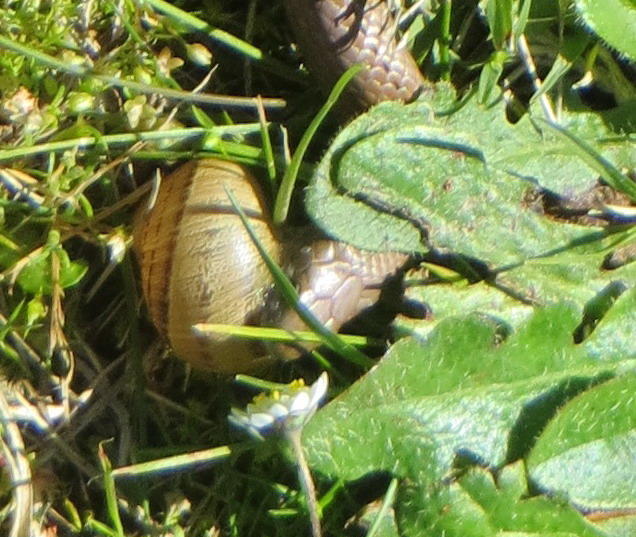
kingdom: Animalia
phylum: Chordata
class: Squamata
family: Pseudoxyrhophiidae
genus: Duberria
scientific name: Duberria lutrix
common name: Common slug eater
